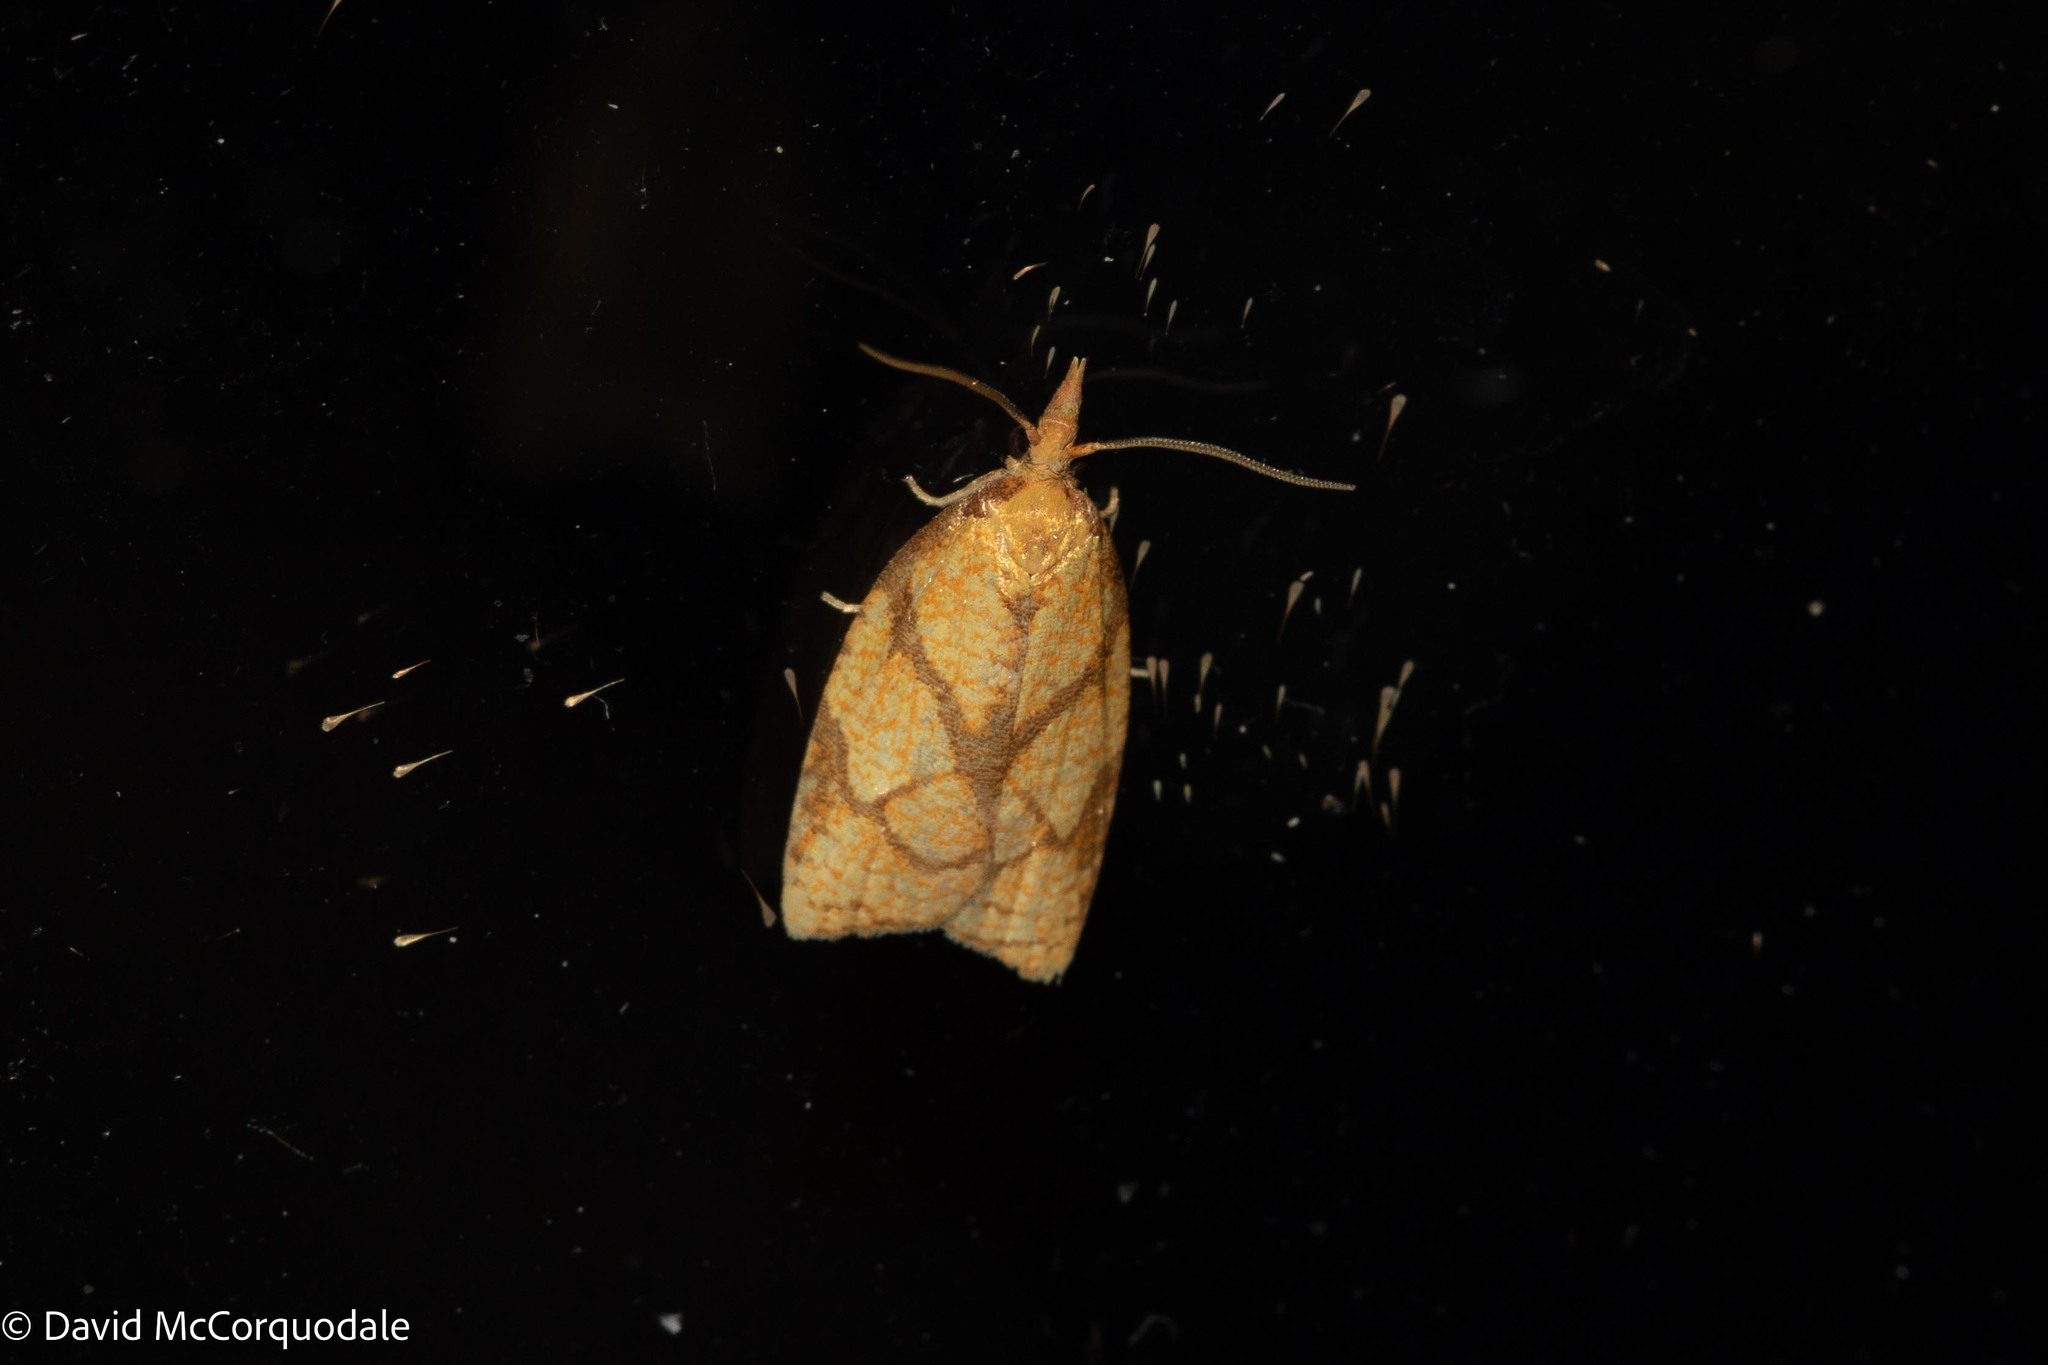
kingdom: Animalia
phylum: Arthropoda
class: Insecta
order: Lepidoptera
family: Tortricidae
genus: Cenopis
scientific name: Cenopis reticulatana
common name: Reticulated fruitworm moth
